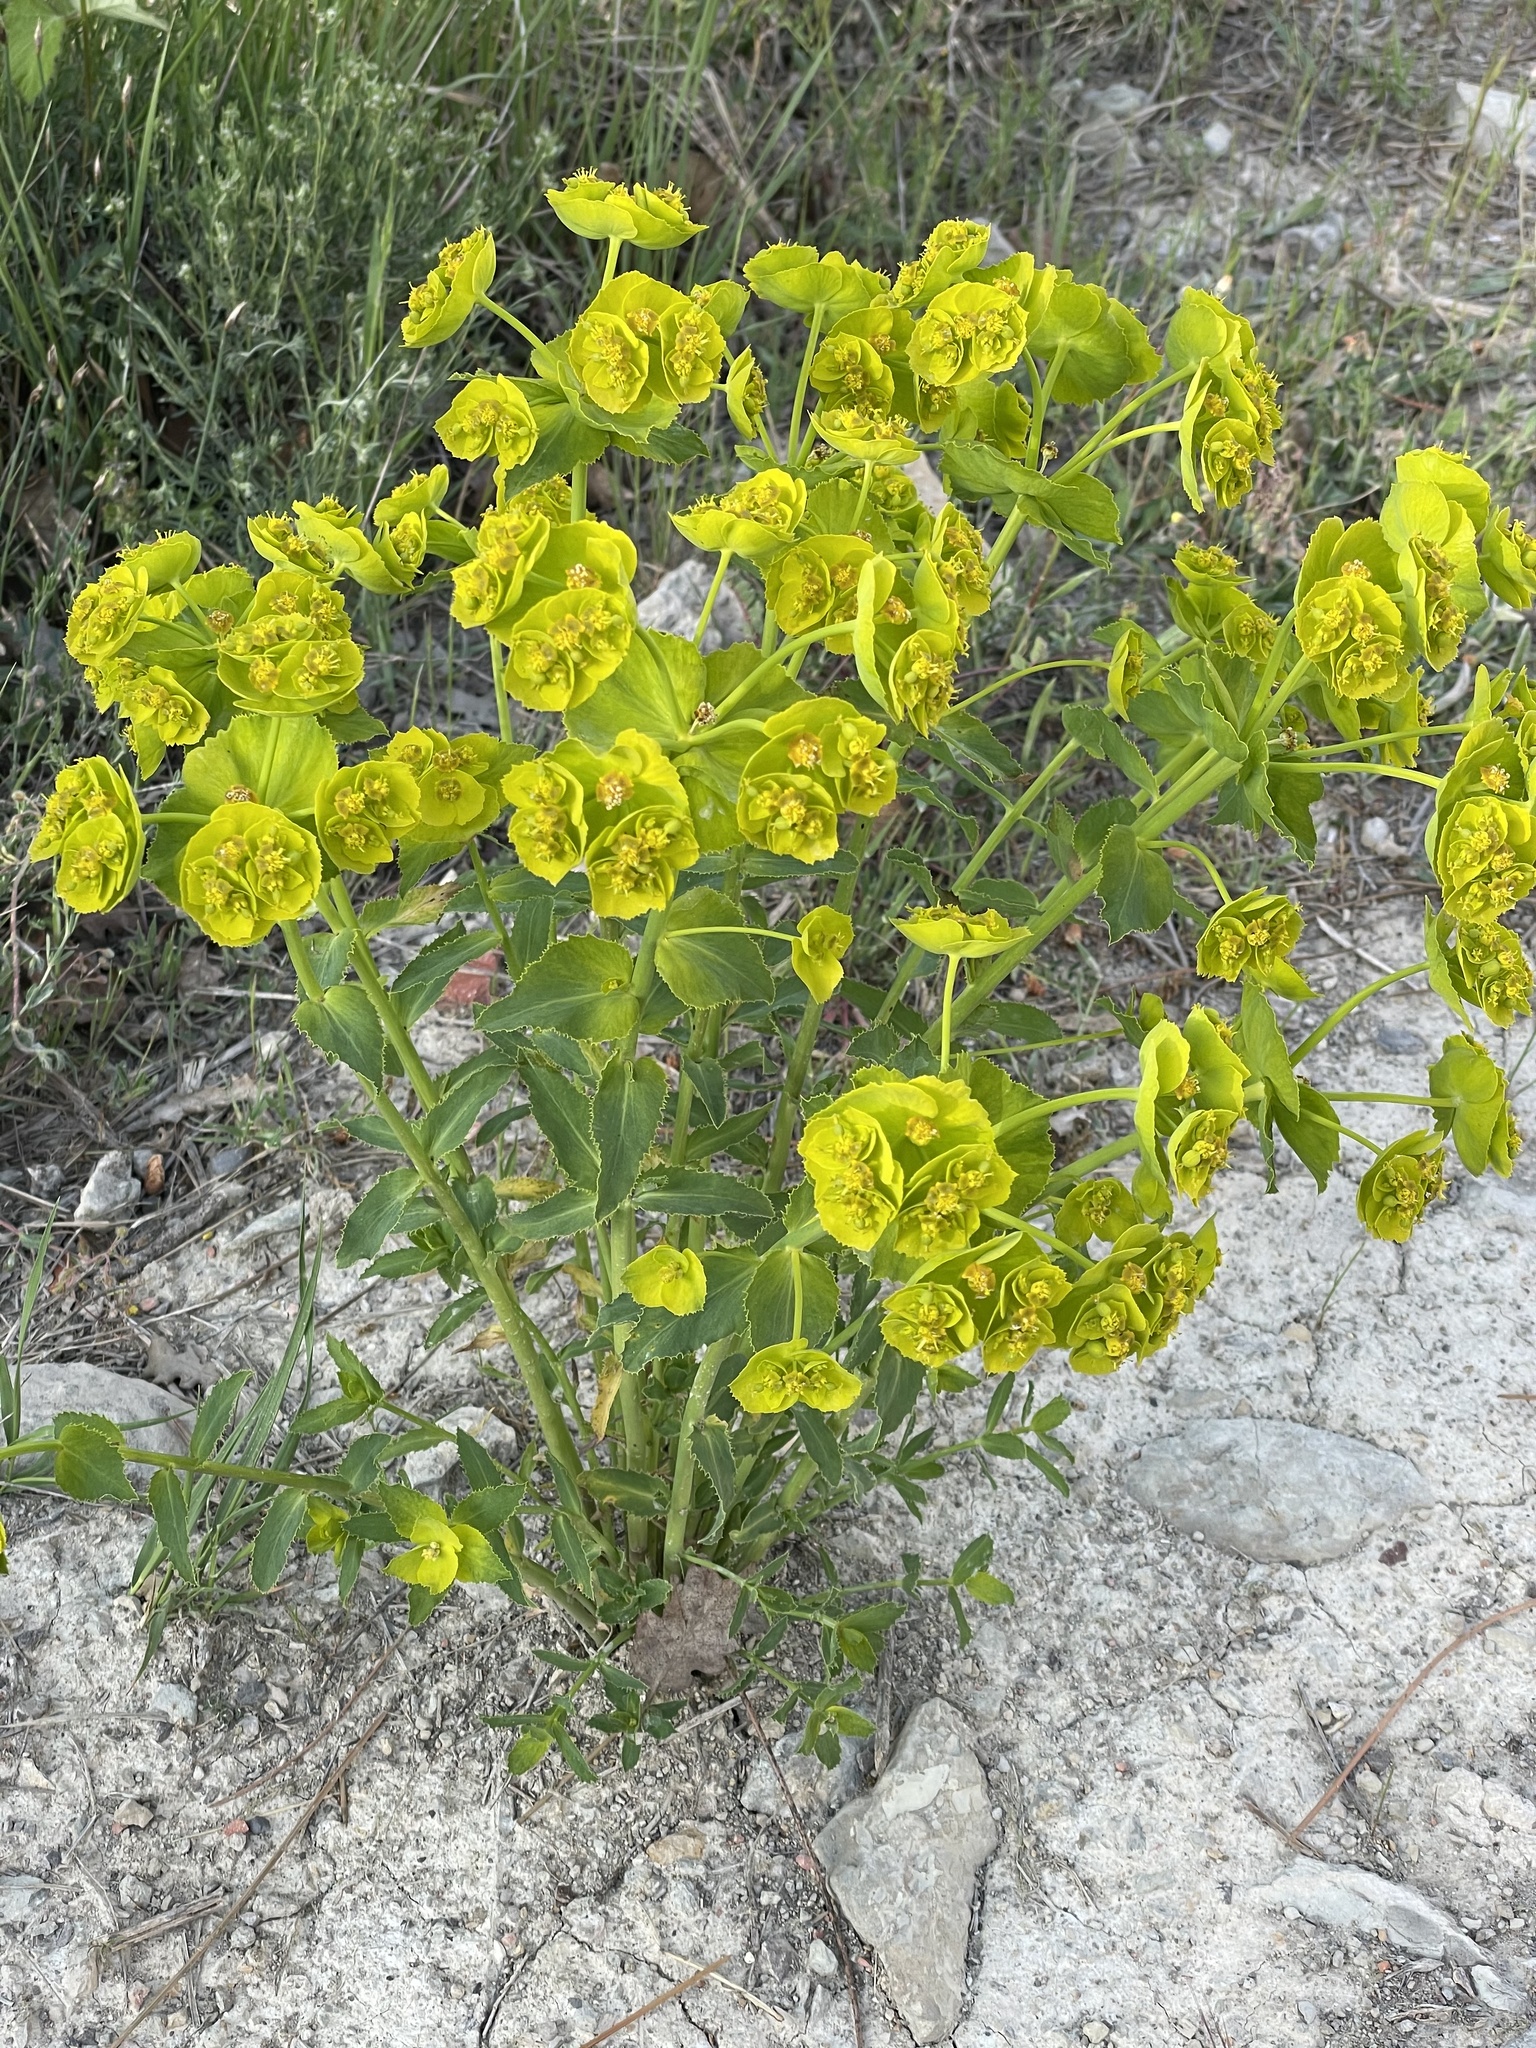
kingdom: Plantae
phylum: Tracheophyta
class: Magnoliopsida
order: Malpighiales
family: Euphorbiaceae
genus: Euphorbia
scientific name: Euphorbia serrata
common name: Serrate spurge
